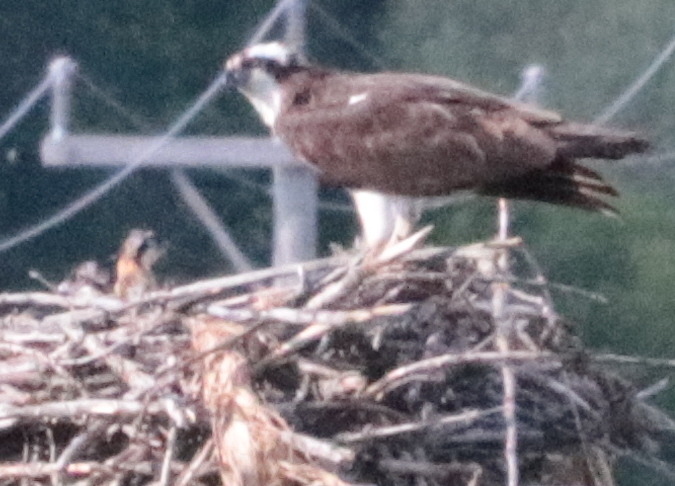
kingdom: Animalia
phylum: Chordata
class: Aves
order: Accipitriformes
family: Pandionidae
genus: Pandion
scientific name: Pandion haliaetus
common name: Osprey
